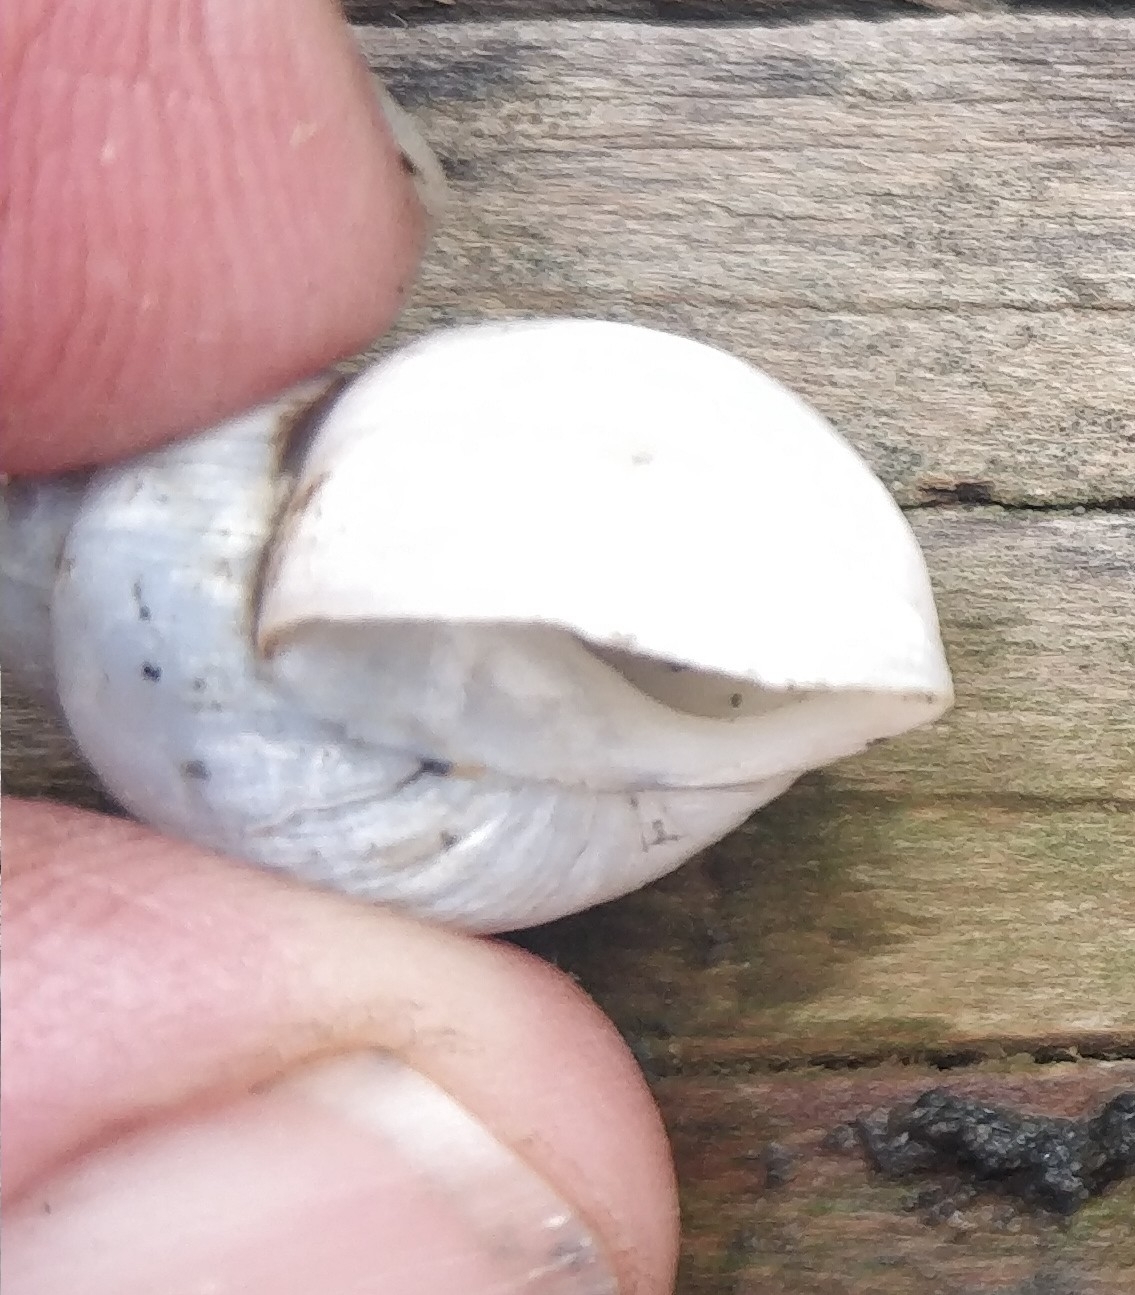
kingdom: Animalia
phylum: Mollusca
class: Gastropoda
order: Architaenioglossa
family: Viviparidae
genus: Campeloma
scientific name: Campeloma decisum
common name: Pointed campeloma
